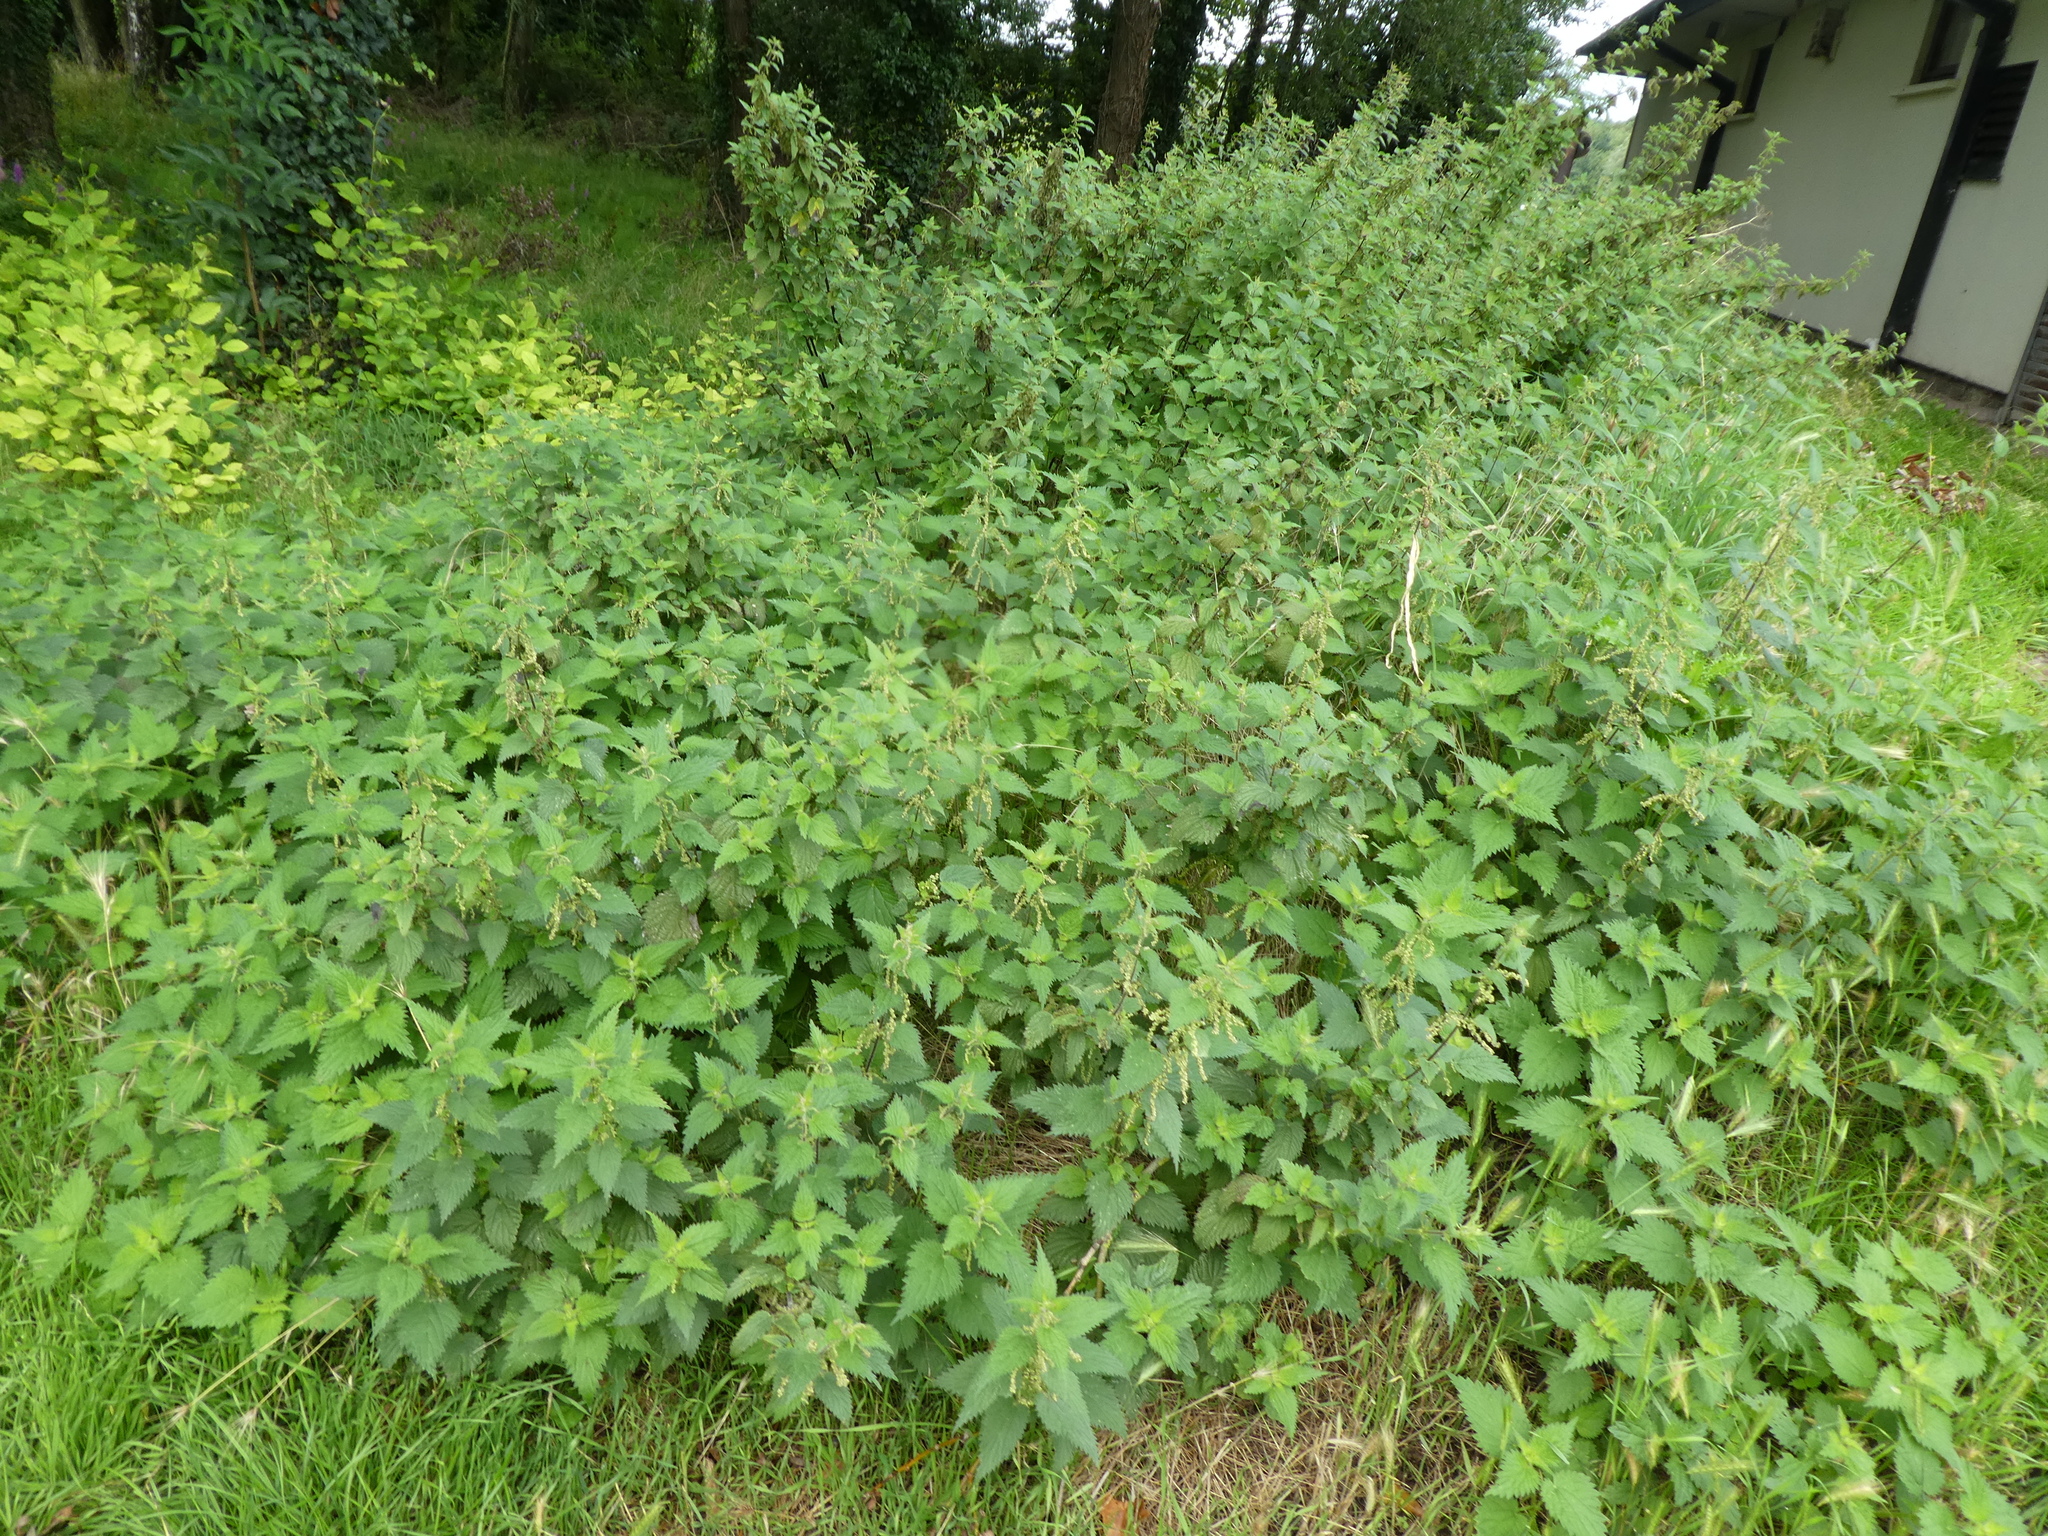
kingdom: Plantae
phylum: Tracheophyta
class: Magnoliopsida
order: Rosales
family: Urticaceae
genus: Urtica
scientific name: Urtica dioica
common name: Common nettle
